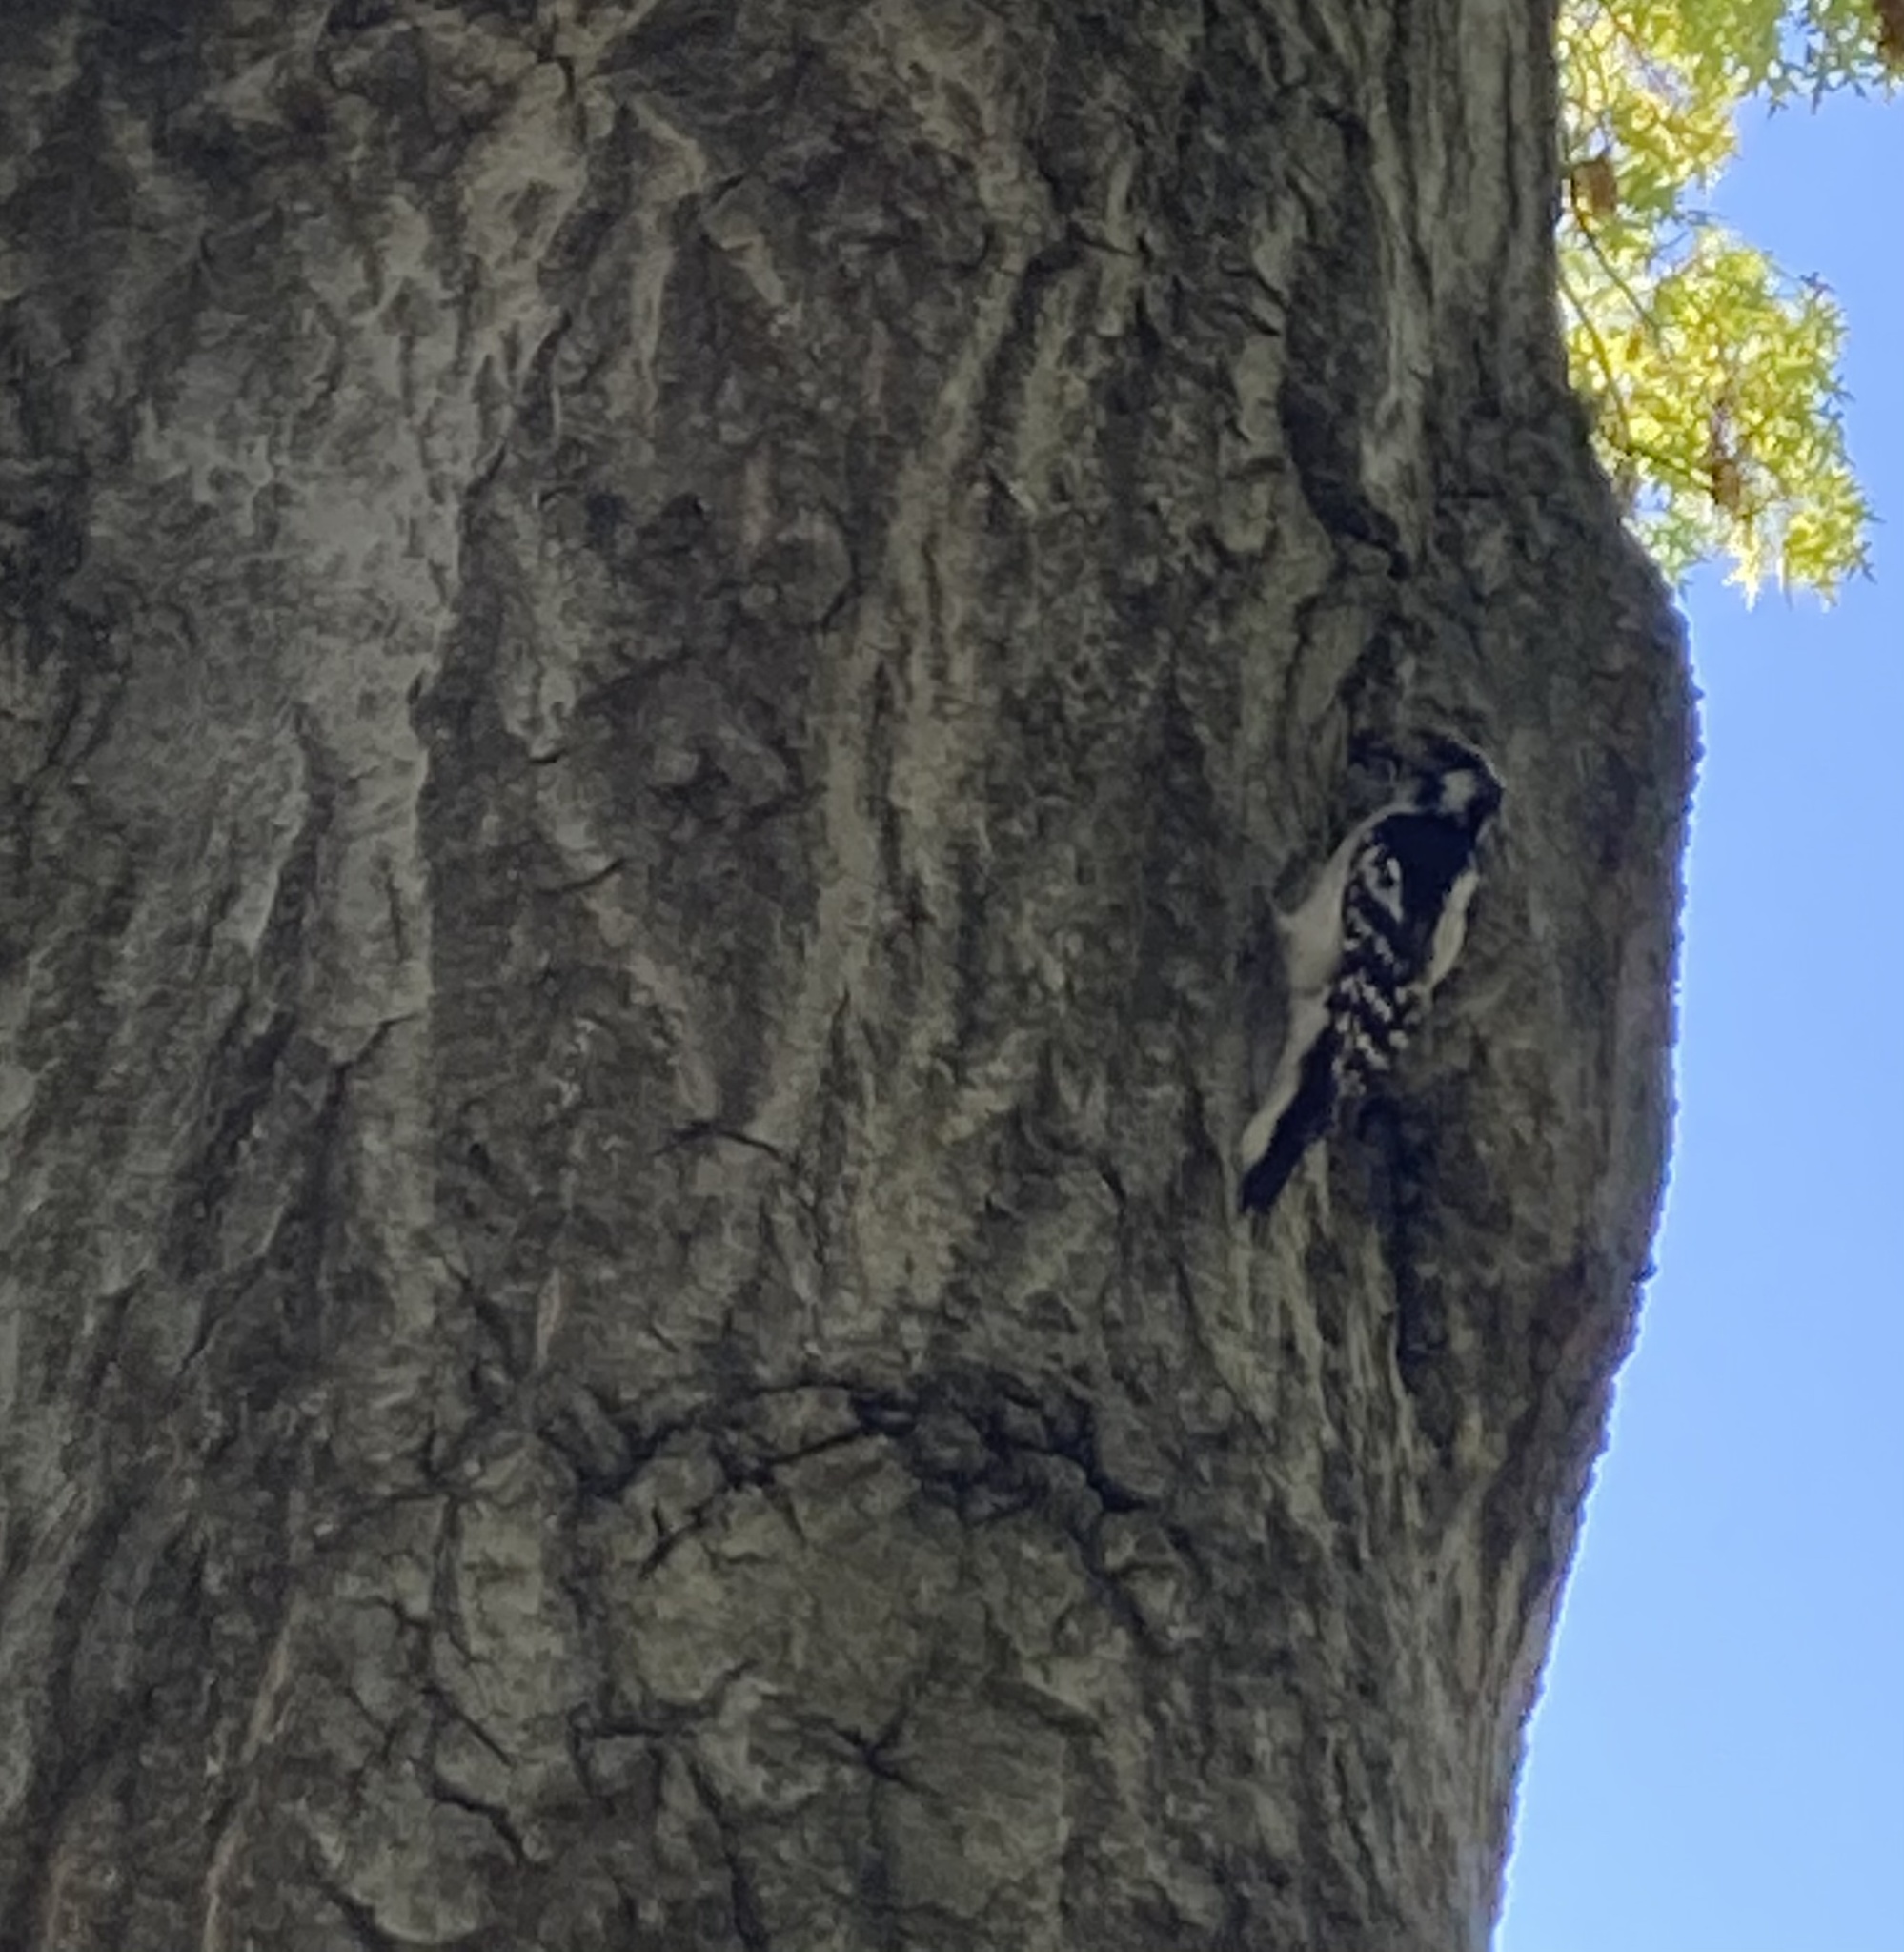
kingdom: Animalia
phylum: Chordata
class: Aves
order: Piciformes
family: Picidae
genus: Dryobates
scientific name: Dryobates pubescens
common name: Downy woodpecker
